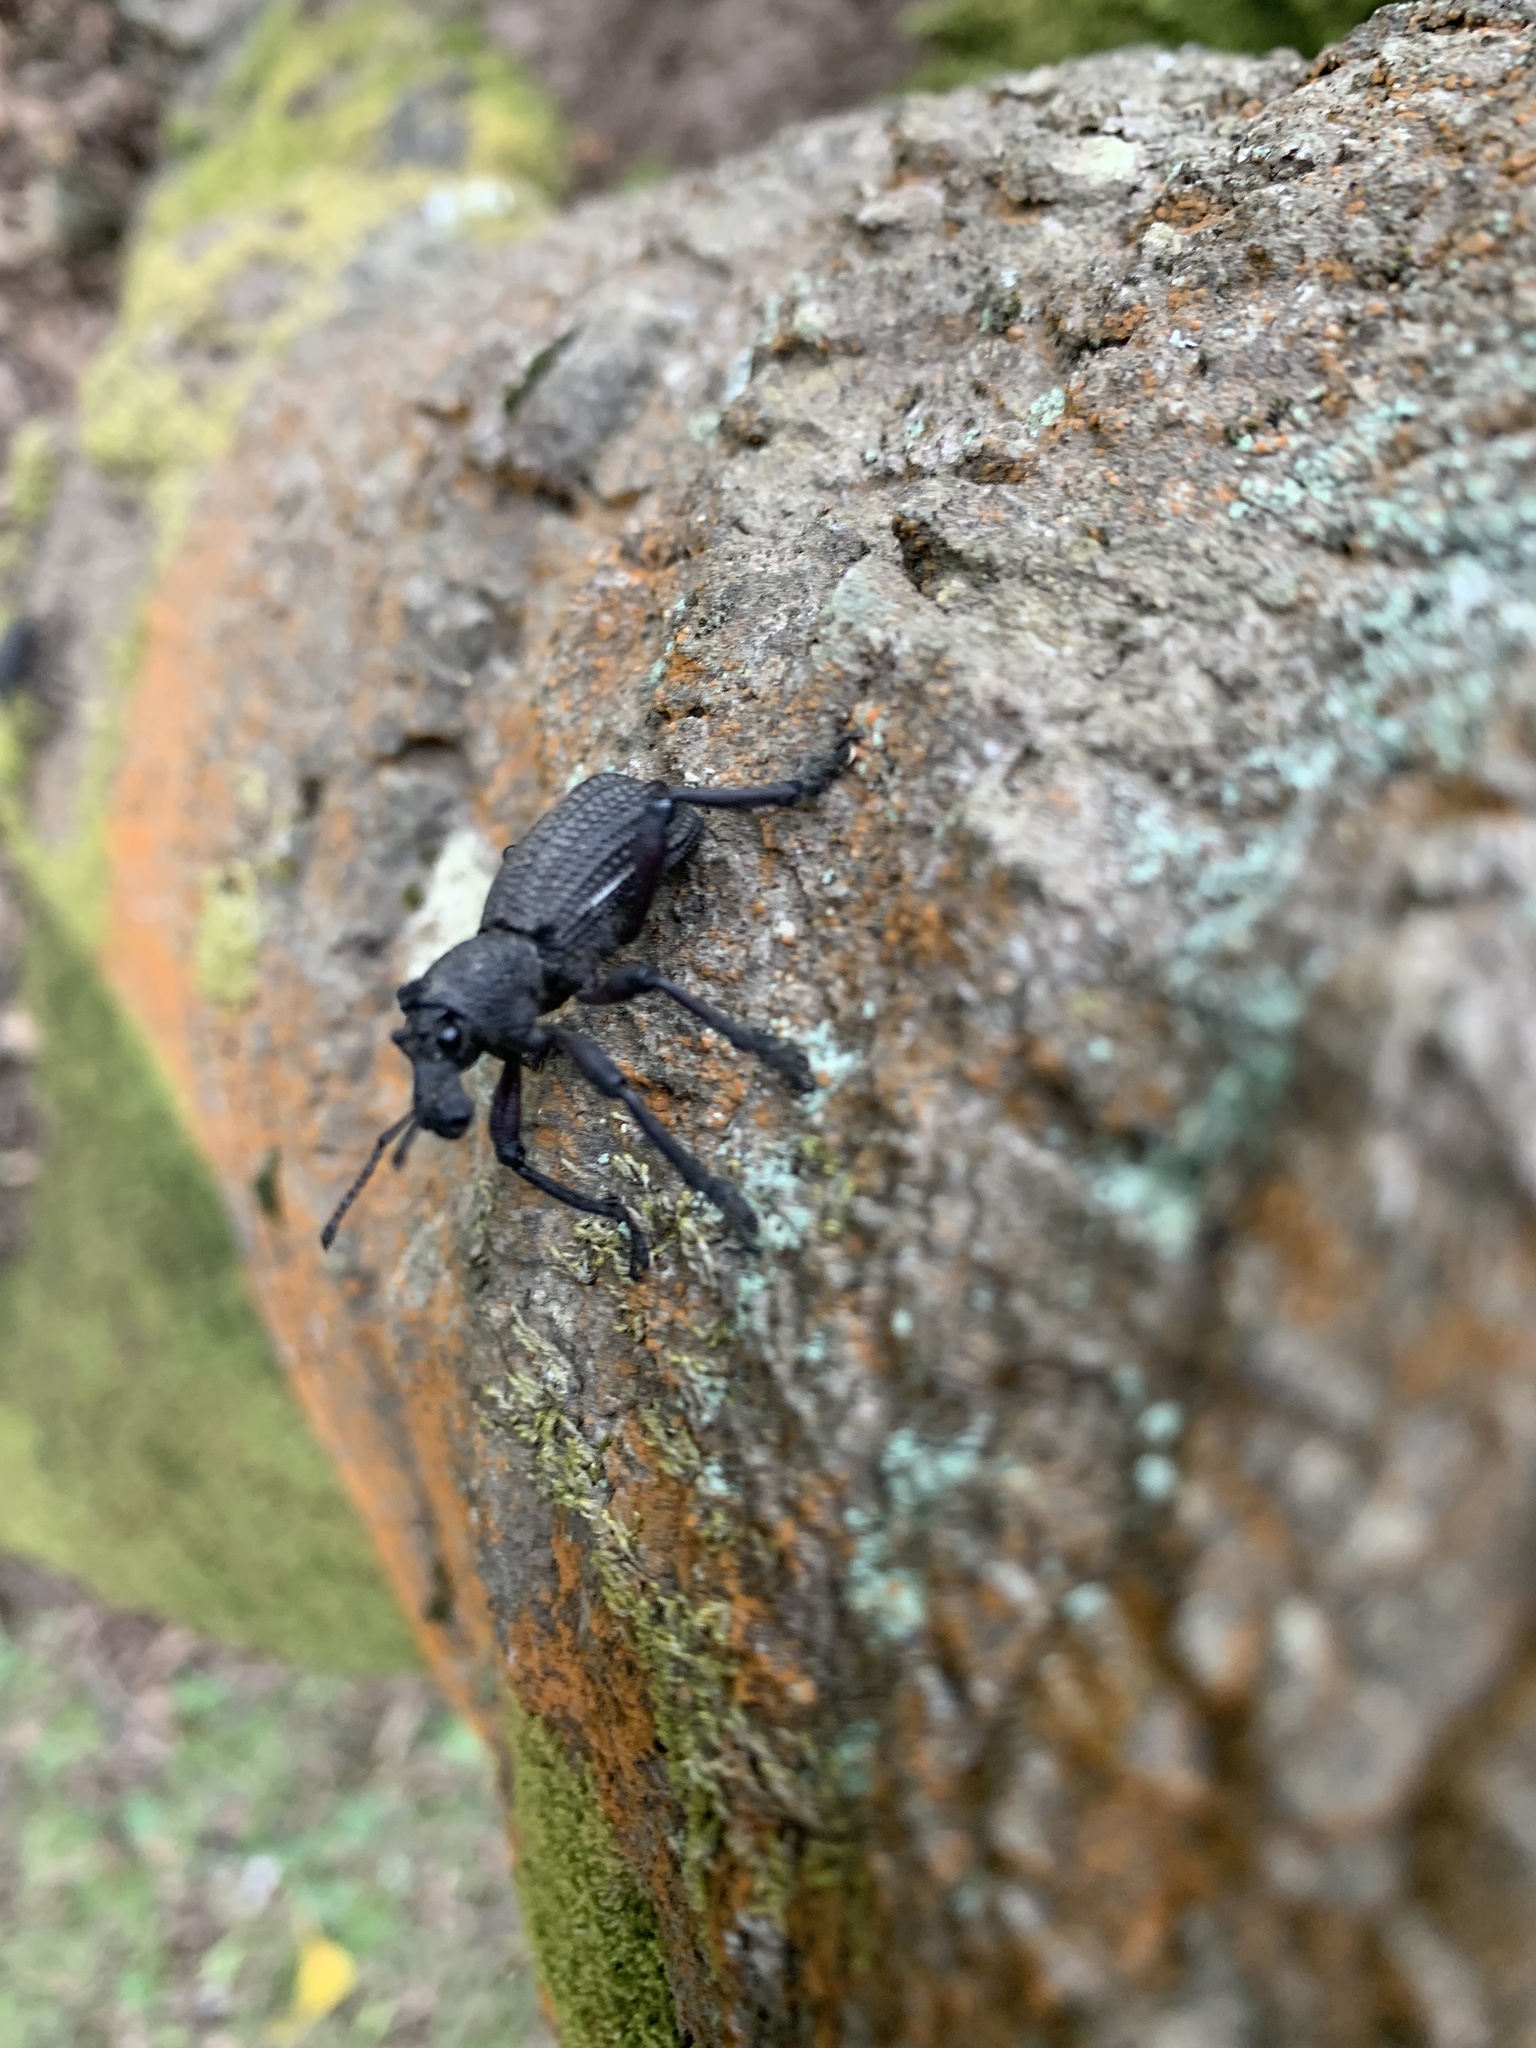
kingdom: Animalia
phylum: Arthropoda
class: Insecta
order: Coleoptera
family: Curculionidae
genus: Aegorhinus
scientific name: Aegorhinus
